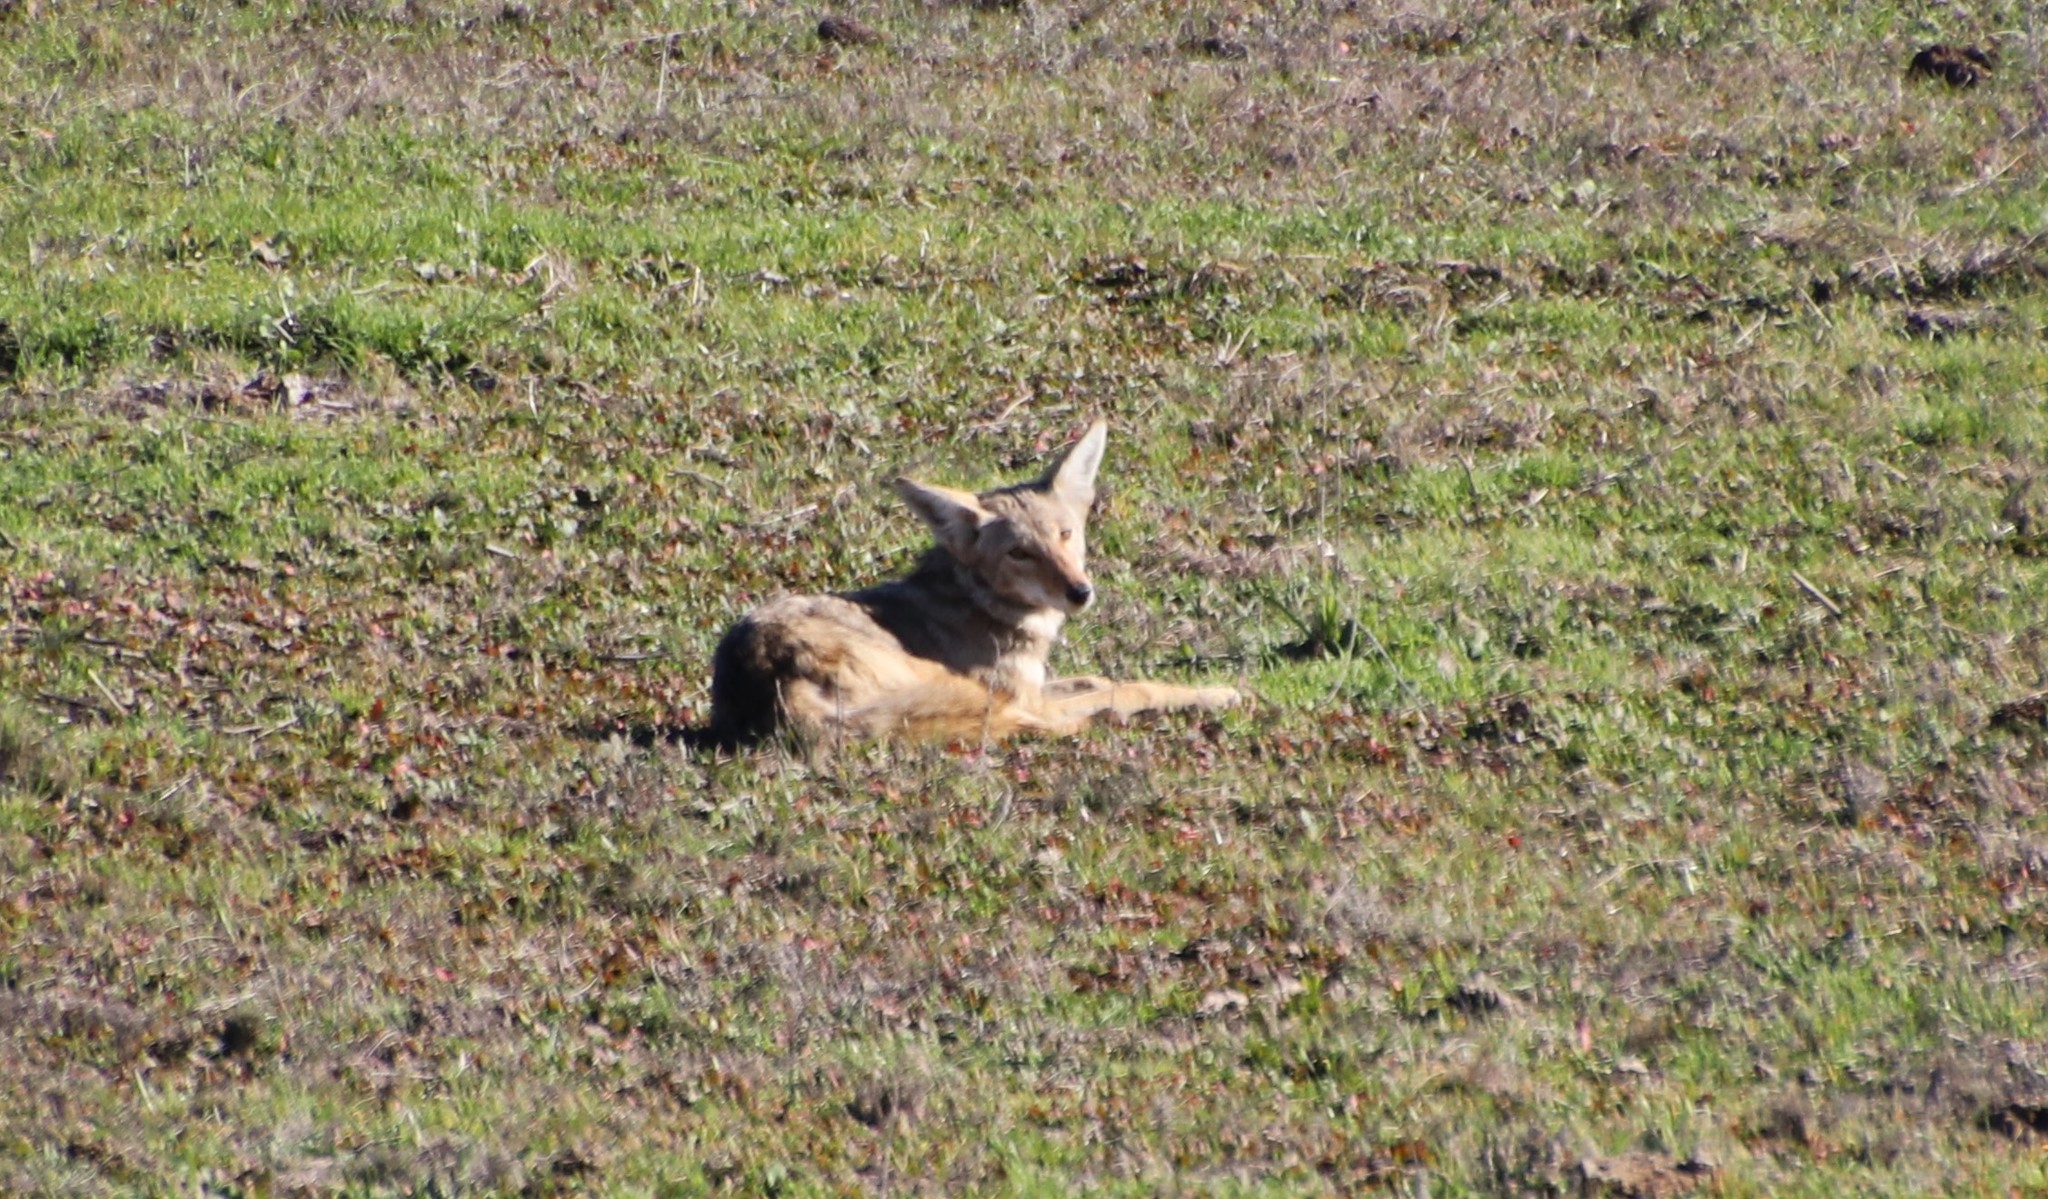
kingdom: Animalia
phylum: Chordata
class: Mammalia
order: Carnivora
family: Canidae
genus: Canis
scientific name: Canis latrans
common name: Coyote
